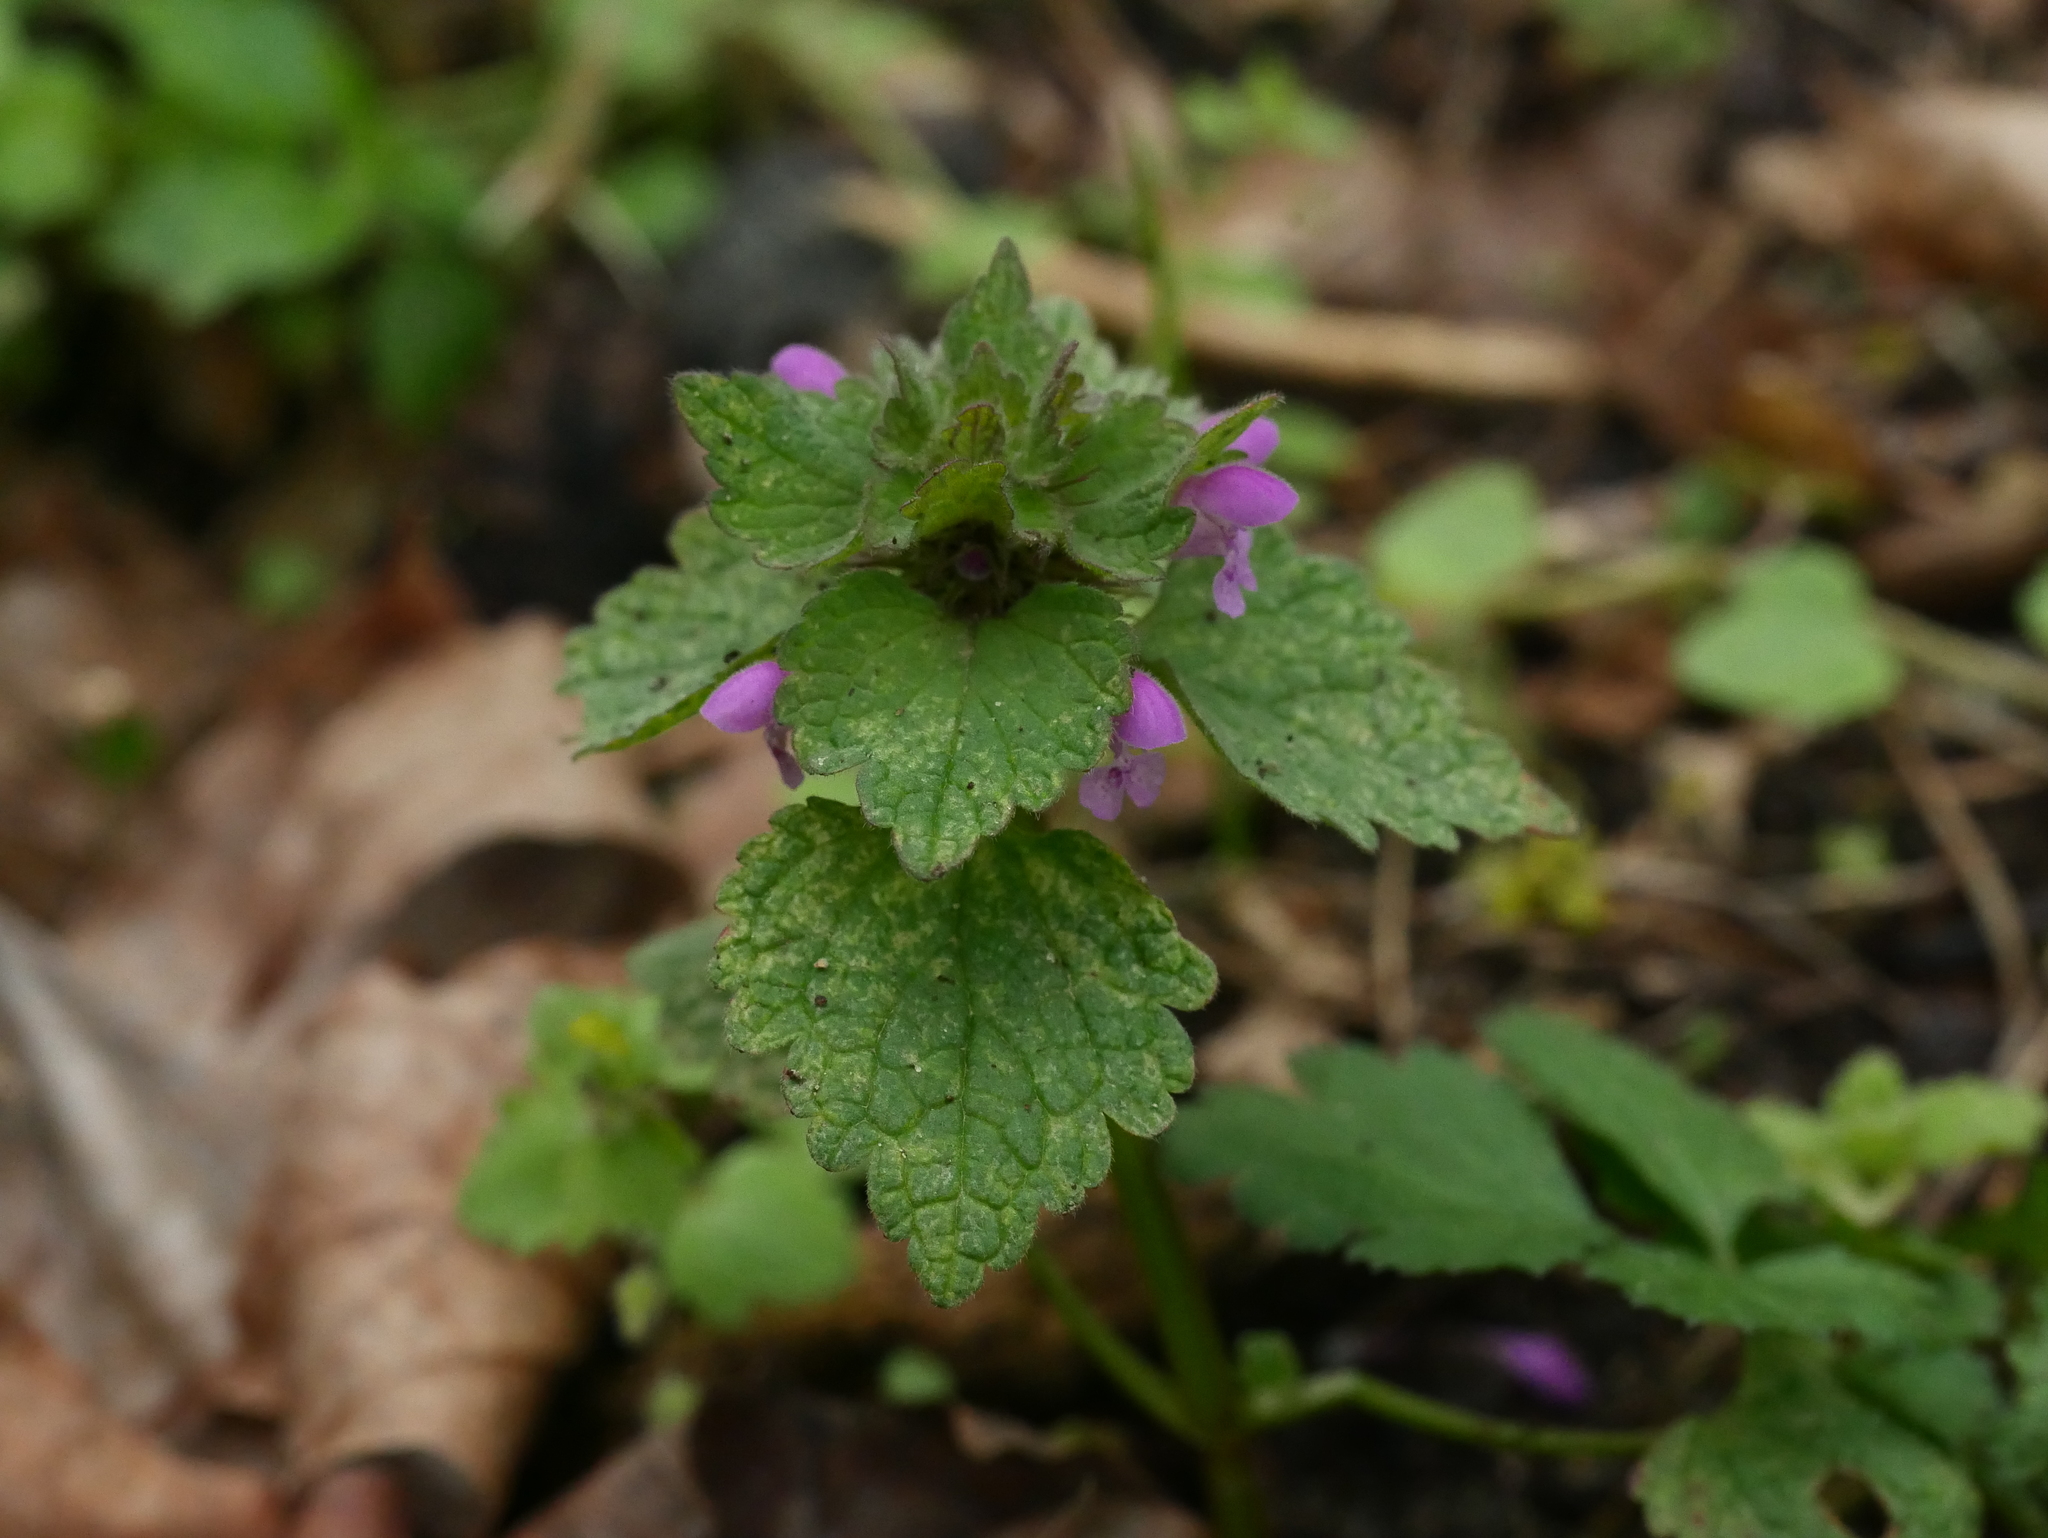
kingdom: Plantae
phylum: Tracheophyta
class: Magnoliopsida
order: Lamiales
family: Lamiaceae
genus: Lamium
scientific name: Lamium purpureum
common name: Red dead-nettle
